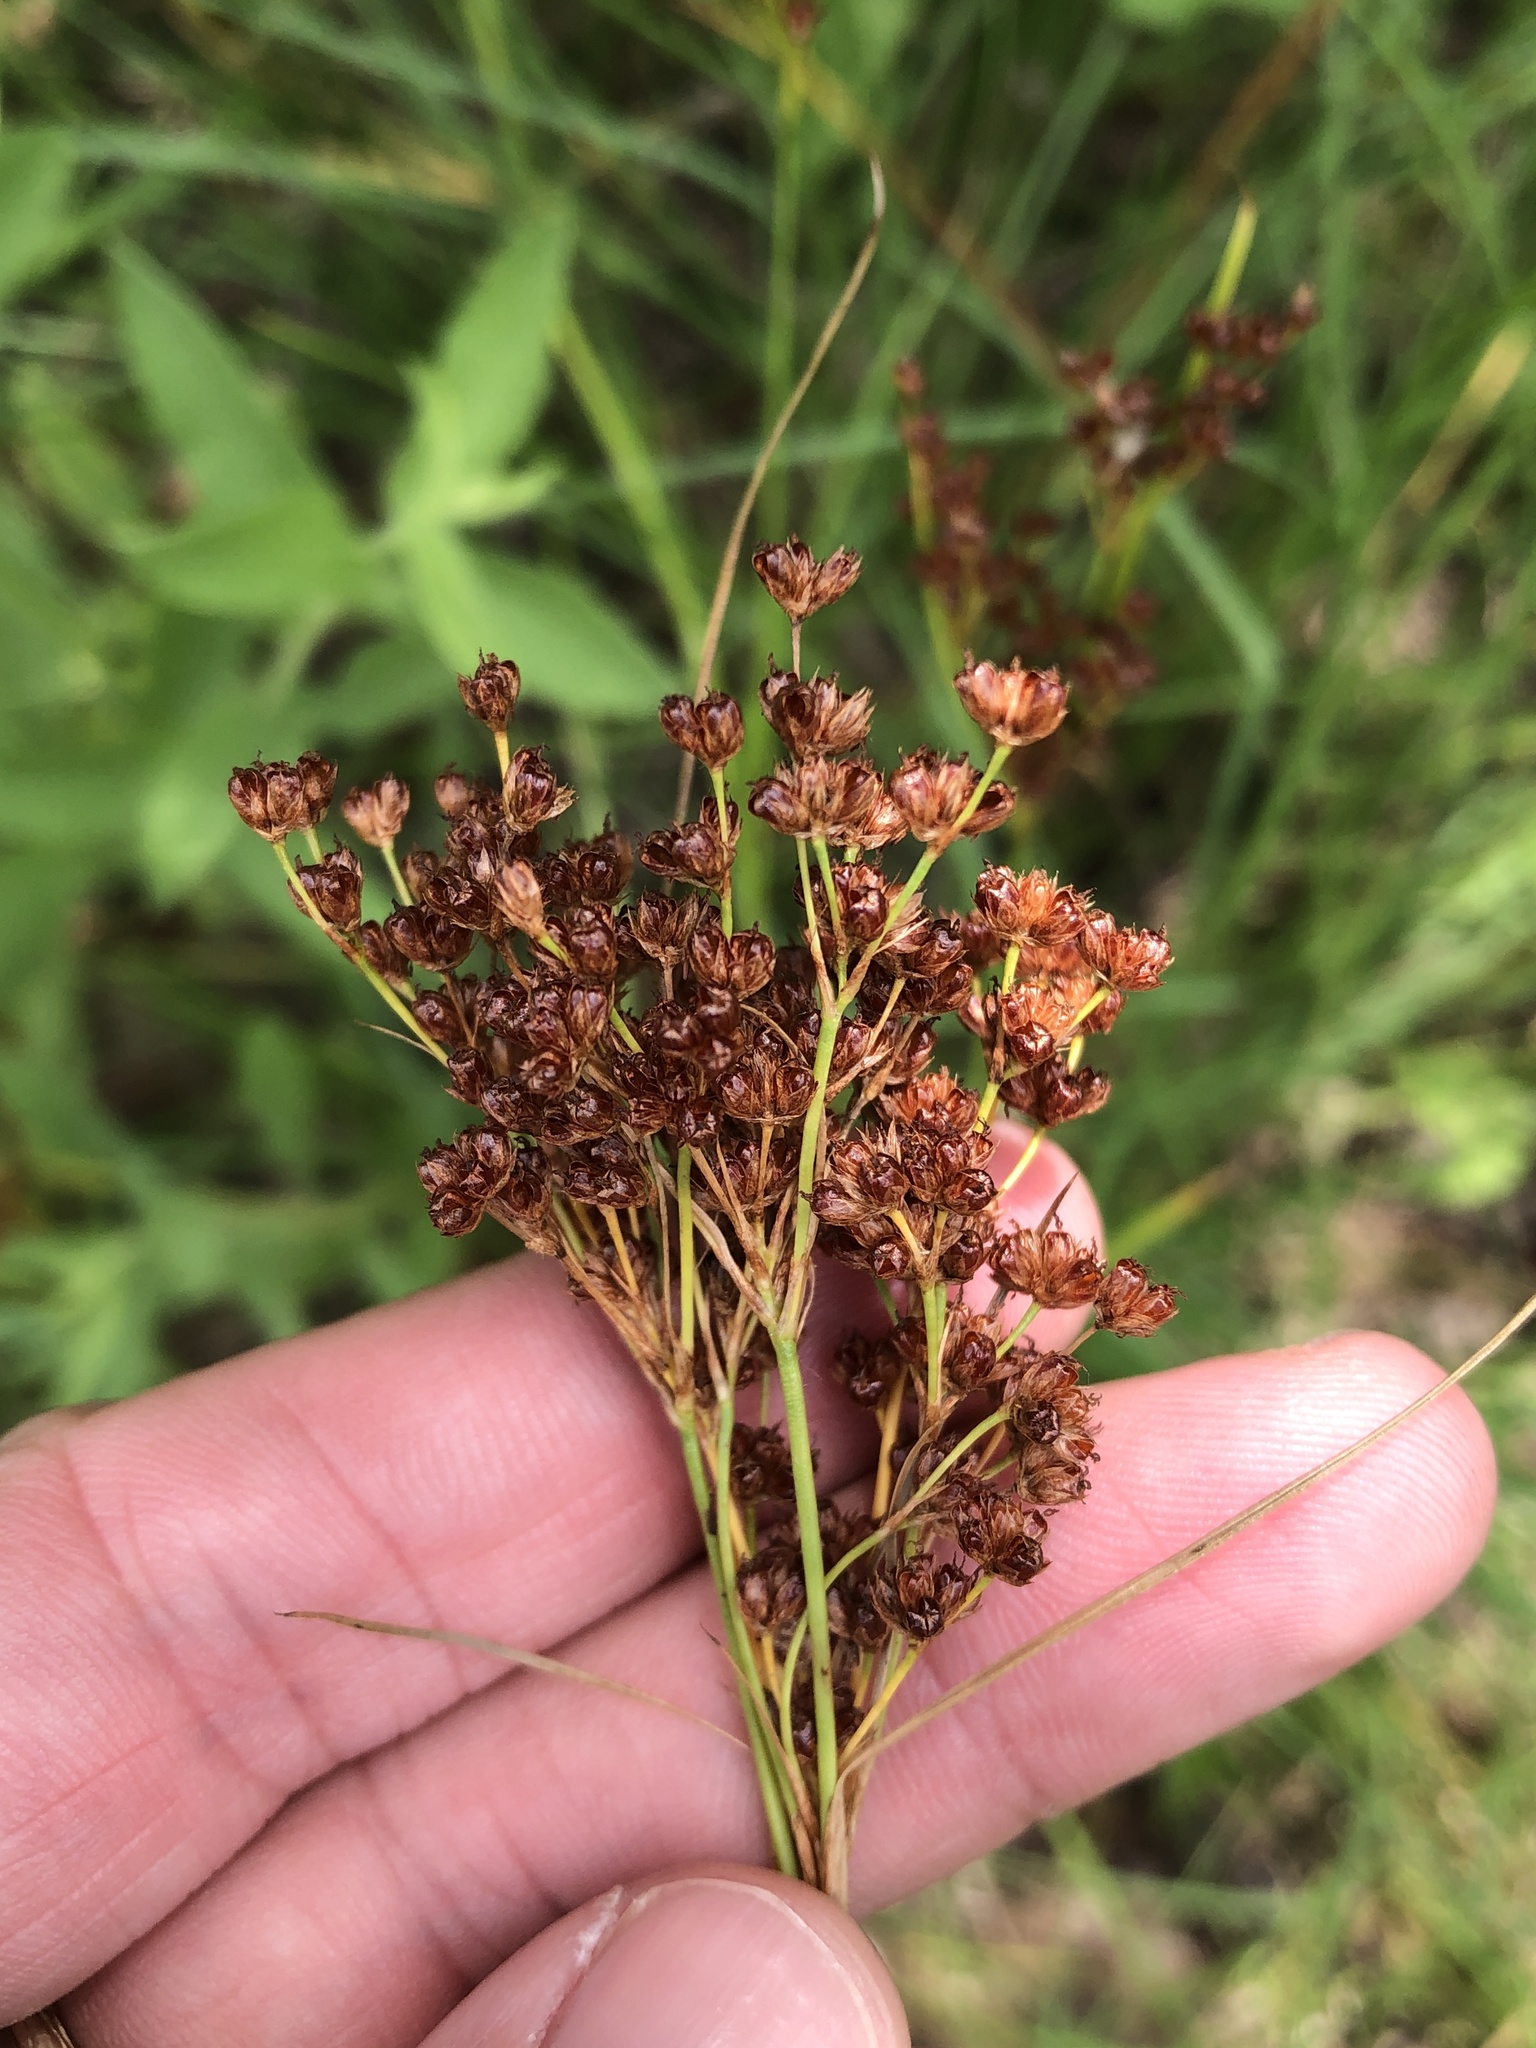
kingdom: Plantae
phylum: Tracheophyta
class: Liliopsida
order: Poales
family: Juncaceae
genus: Juncus
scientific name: Juncus marginatus
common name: Grass-leaf rush
